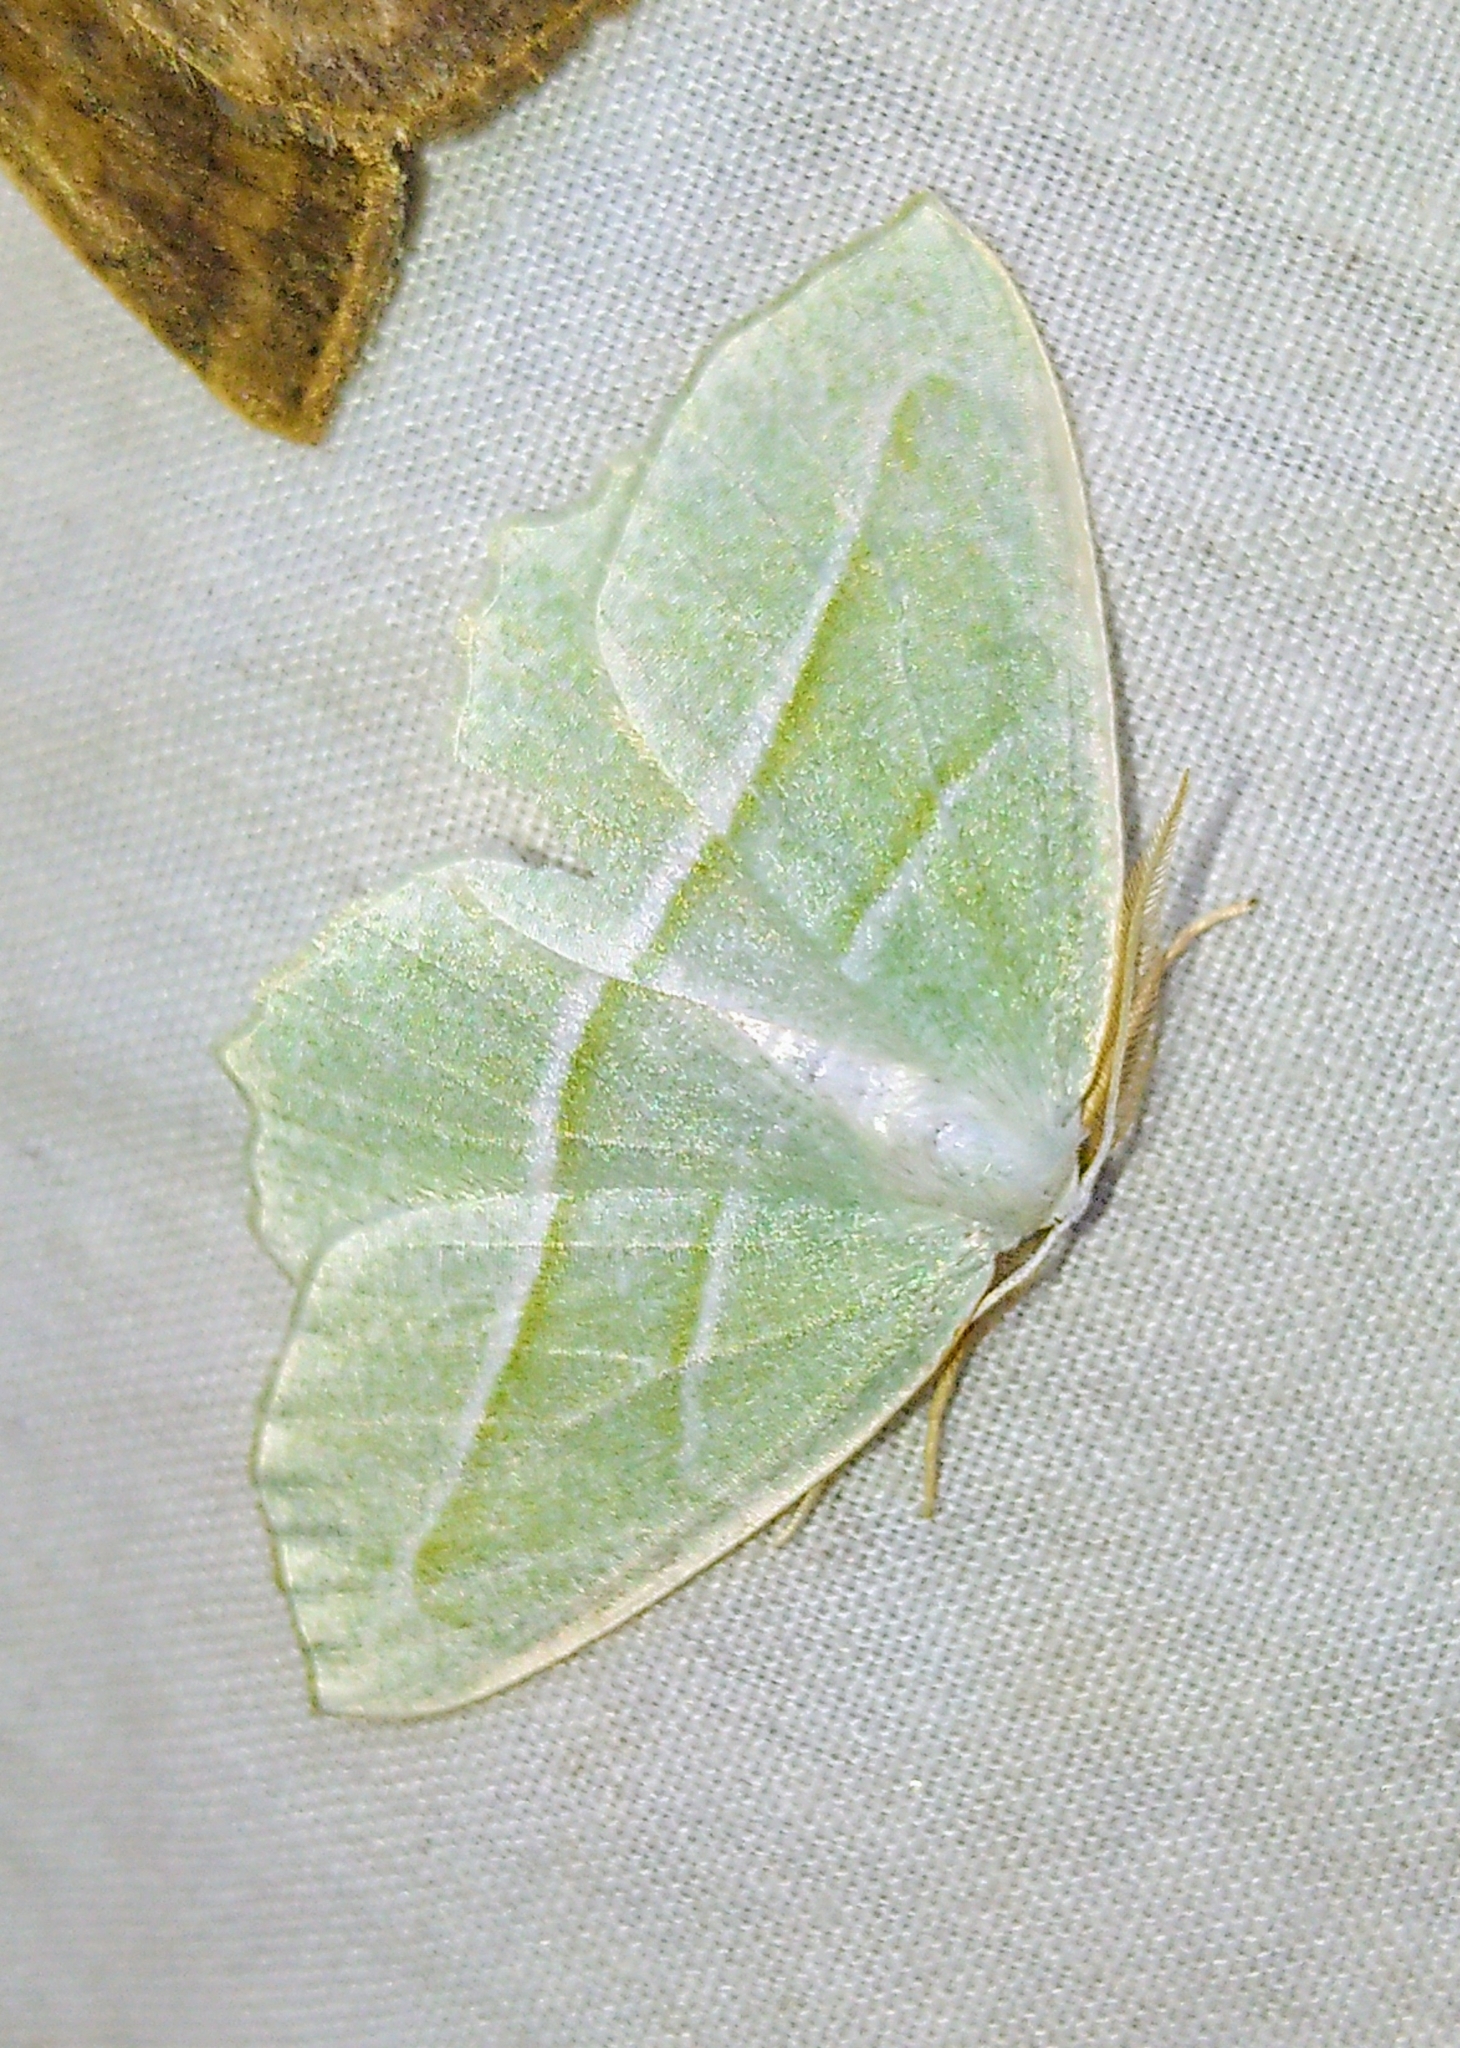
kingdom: Animalia
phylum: Arthropoda
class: Insecta
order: Lepidoptera
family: Geometridae
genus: Campaea
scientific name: Campaea perlata
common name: Fringed looper
